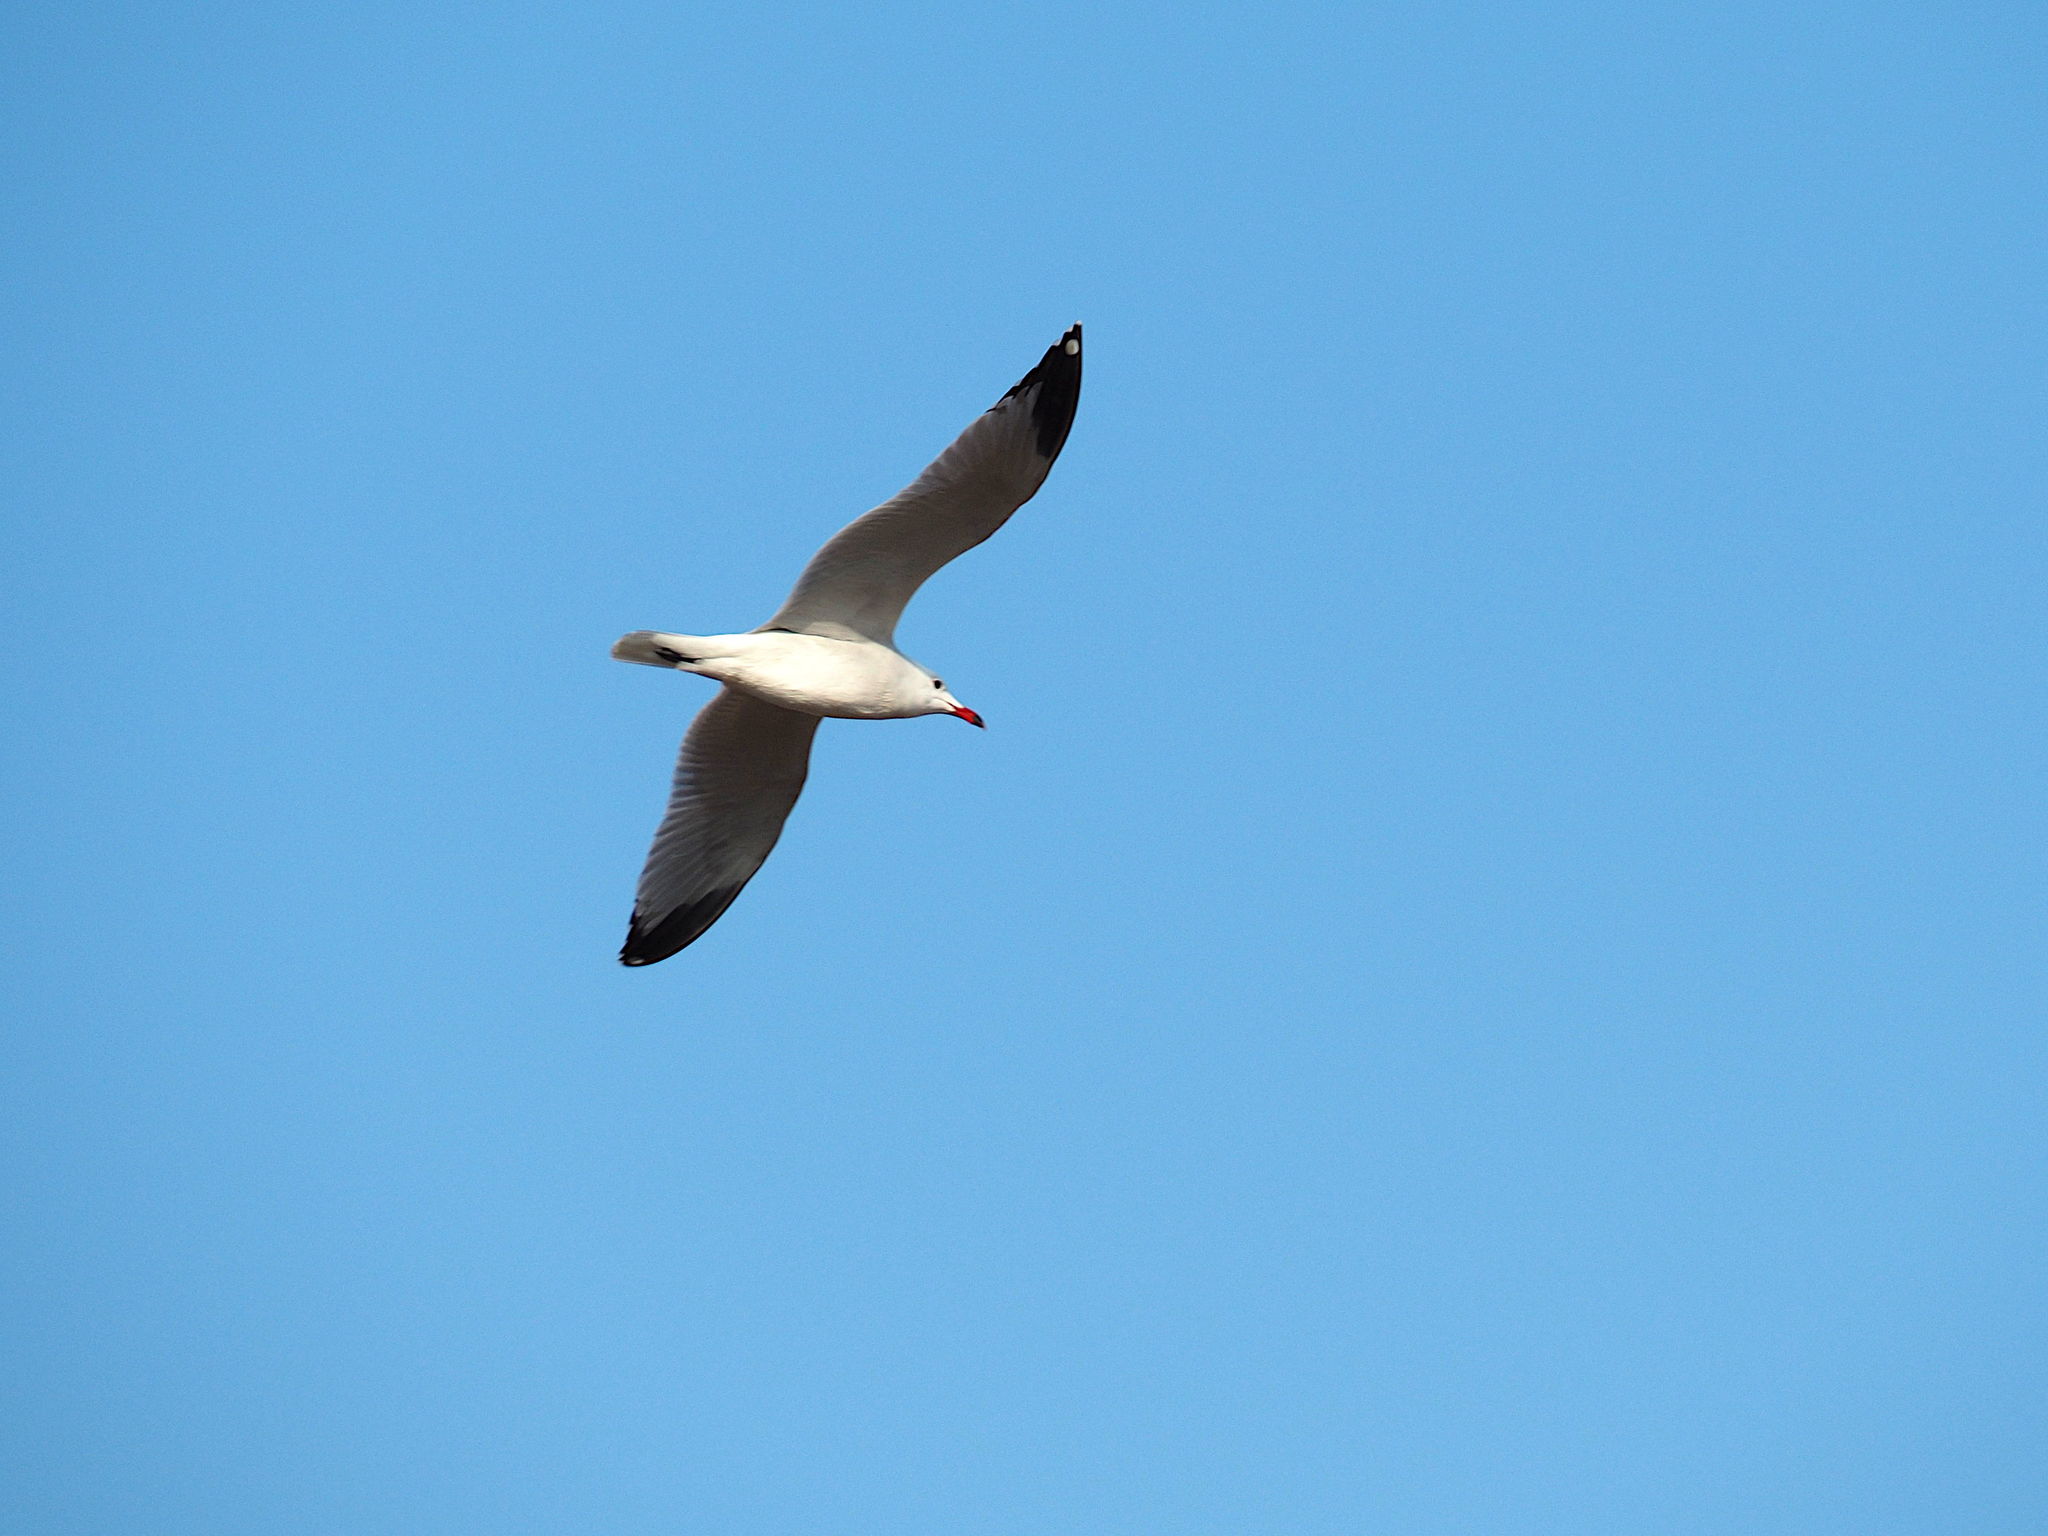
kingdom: Animalia
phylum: Chordata
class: Aves
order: Charadriiformes
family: Laridae
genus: Ichthyaetus
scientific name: Ichthyaetus audouinii
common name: Audouin's gull
